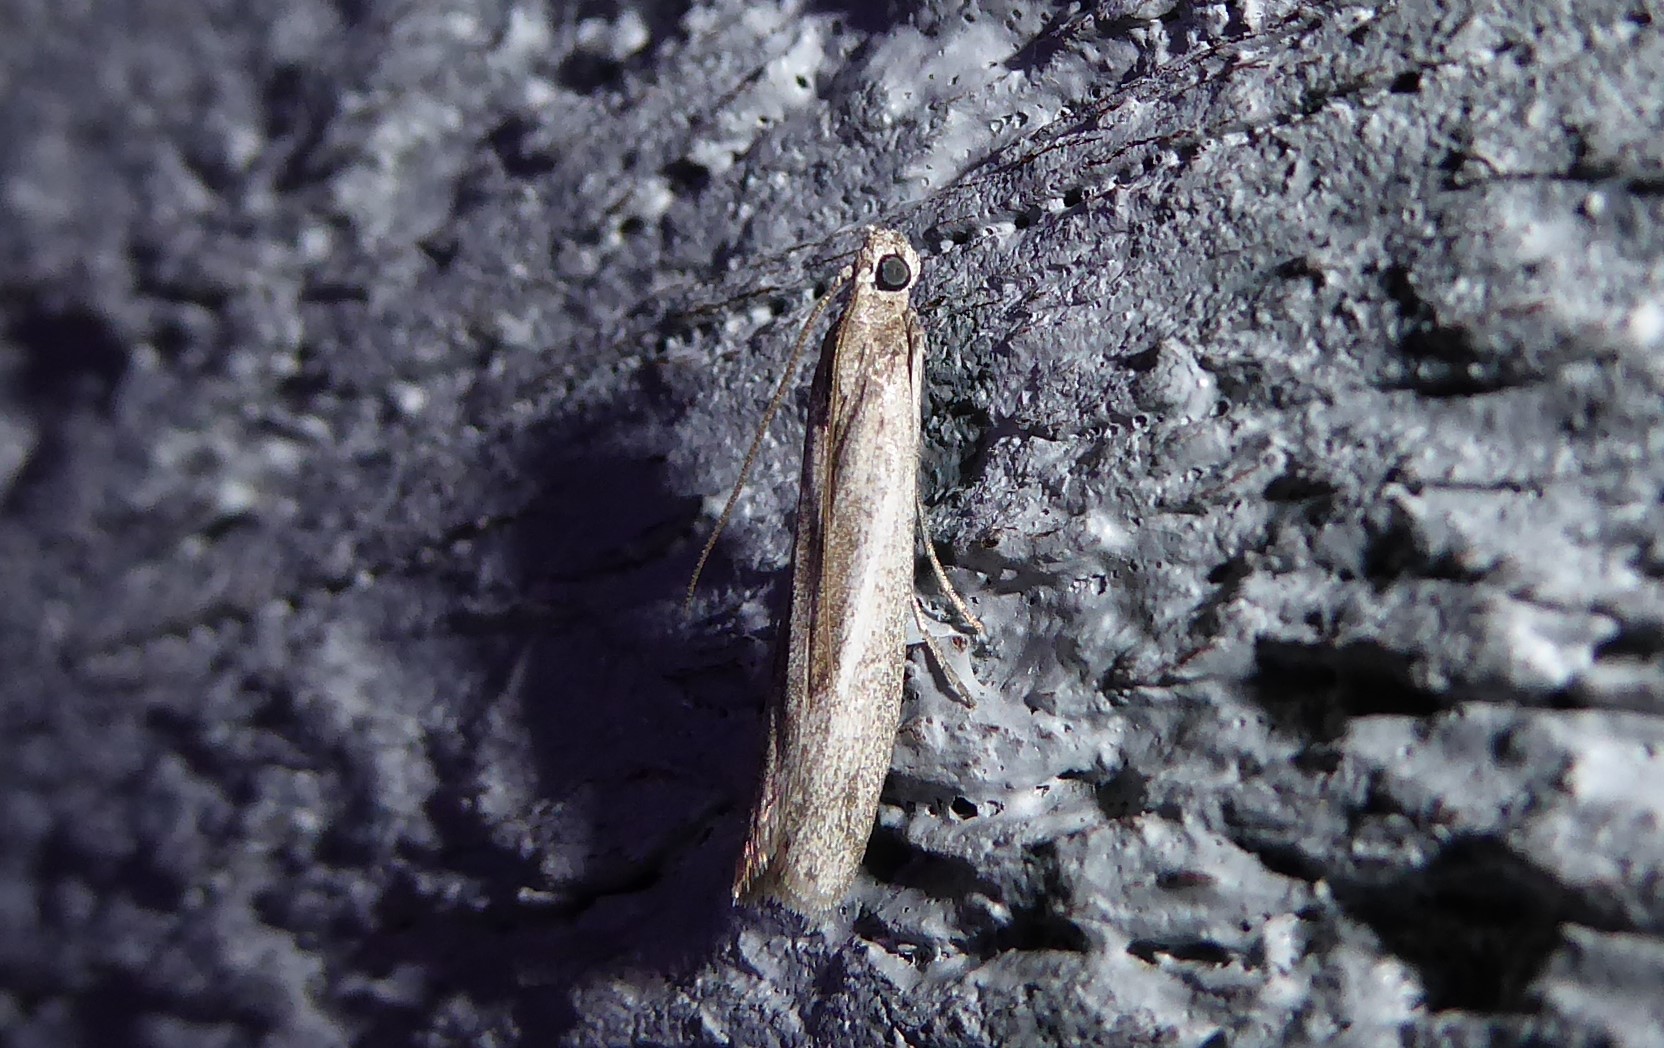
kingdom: Animalia
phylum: Arthropoda
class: Insecta
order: Lepidoptera
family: Pyralidae
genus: Homoeosoma
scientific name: Homoeosoma anaspila
